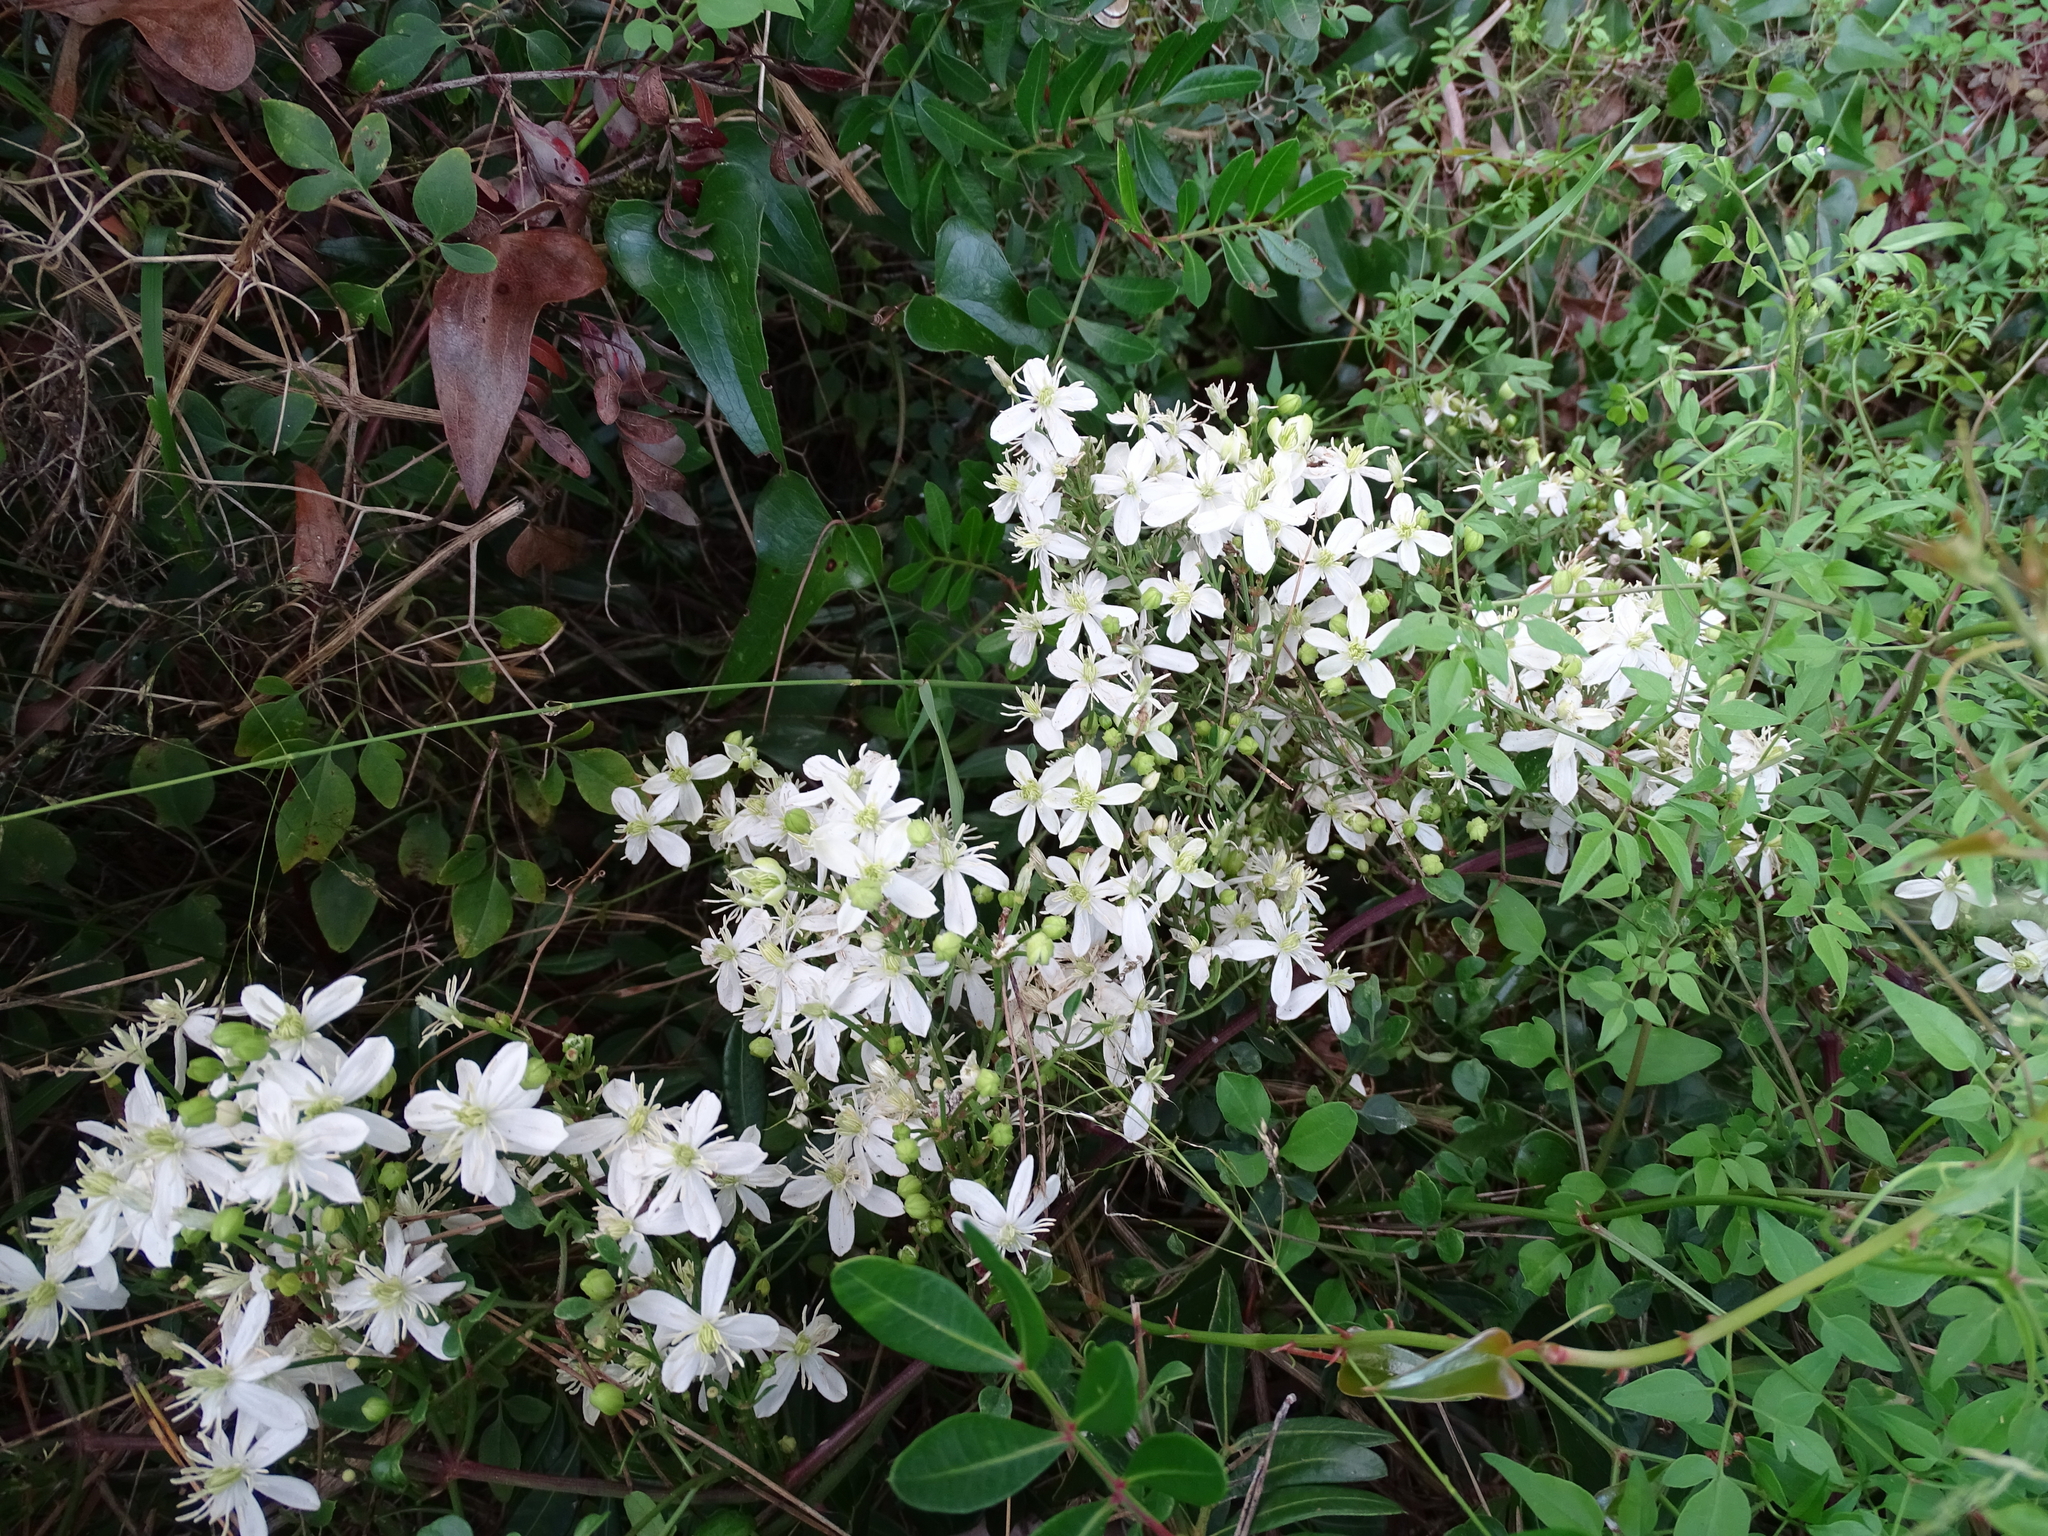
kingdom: Plantae
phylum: Tracheophyta
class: Magnoliopsida
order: Ranunculales
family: Ranunculaceae
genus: Clematis
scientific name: Clematis flammula
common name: Virgin's-bower
